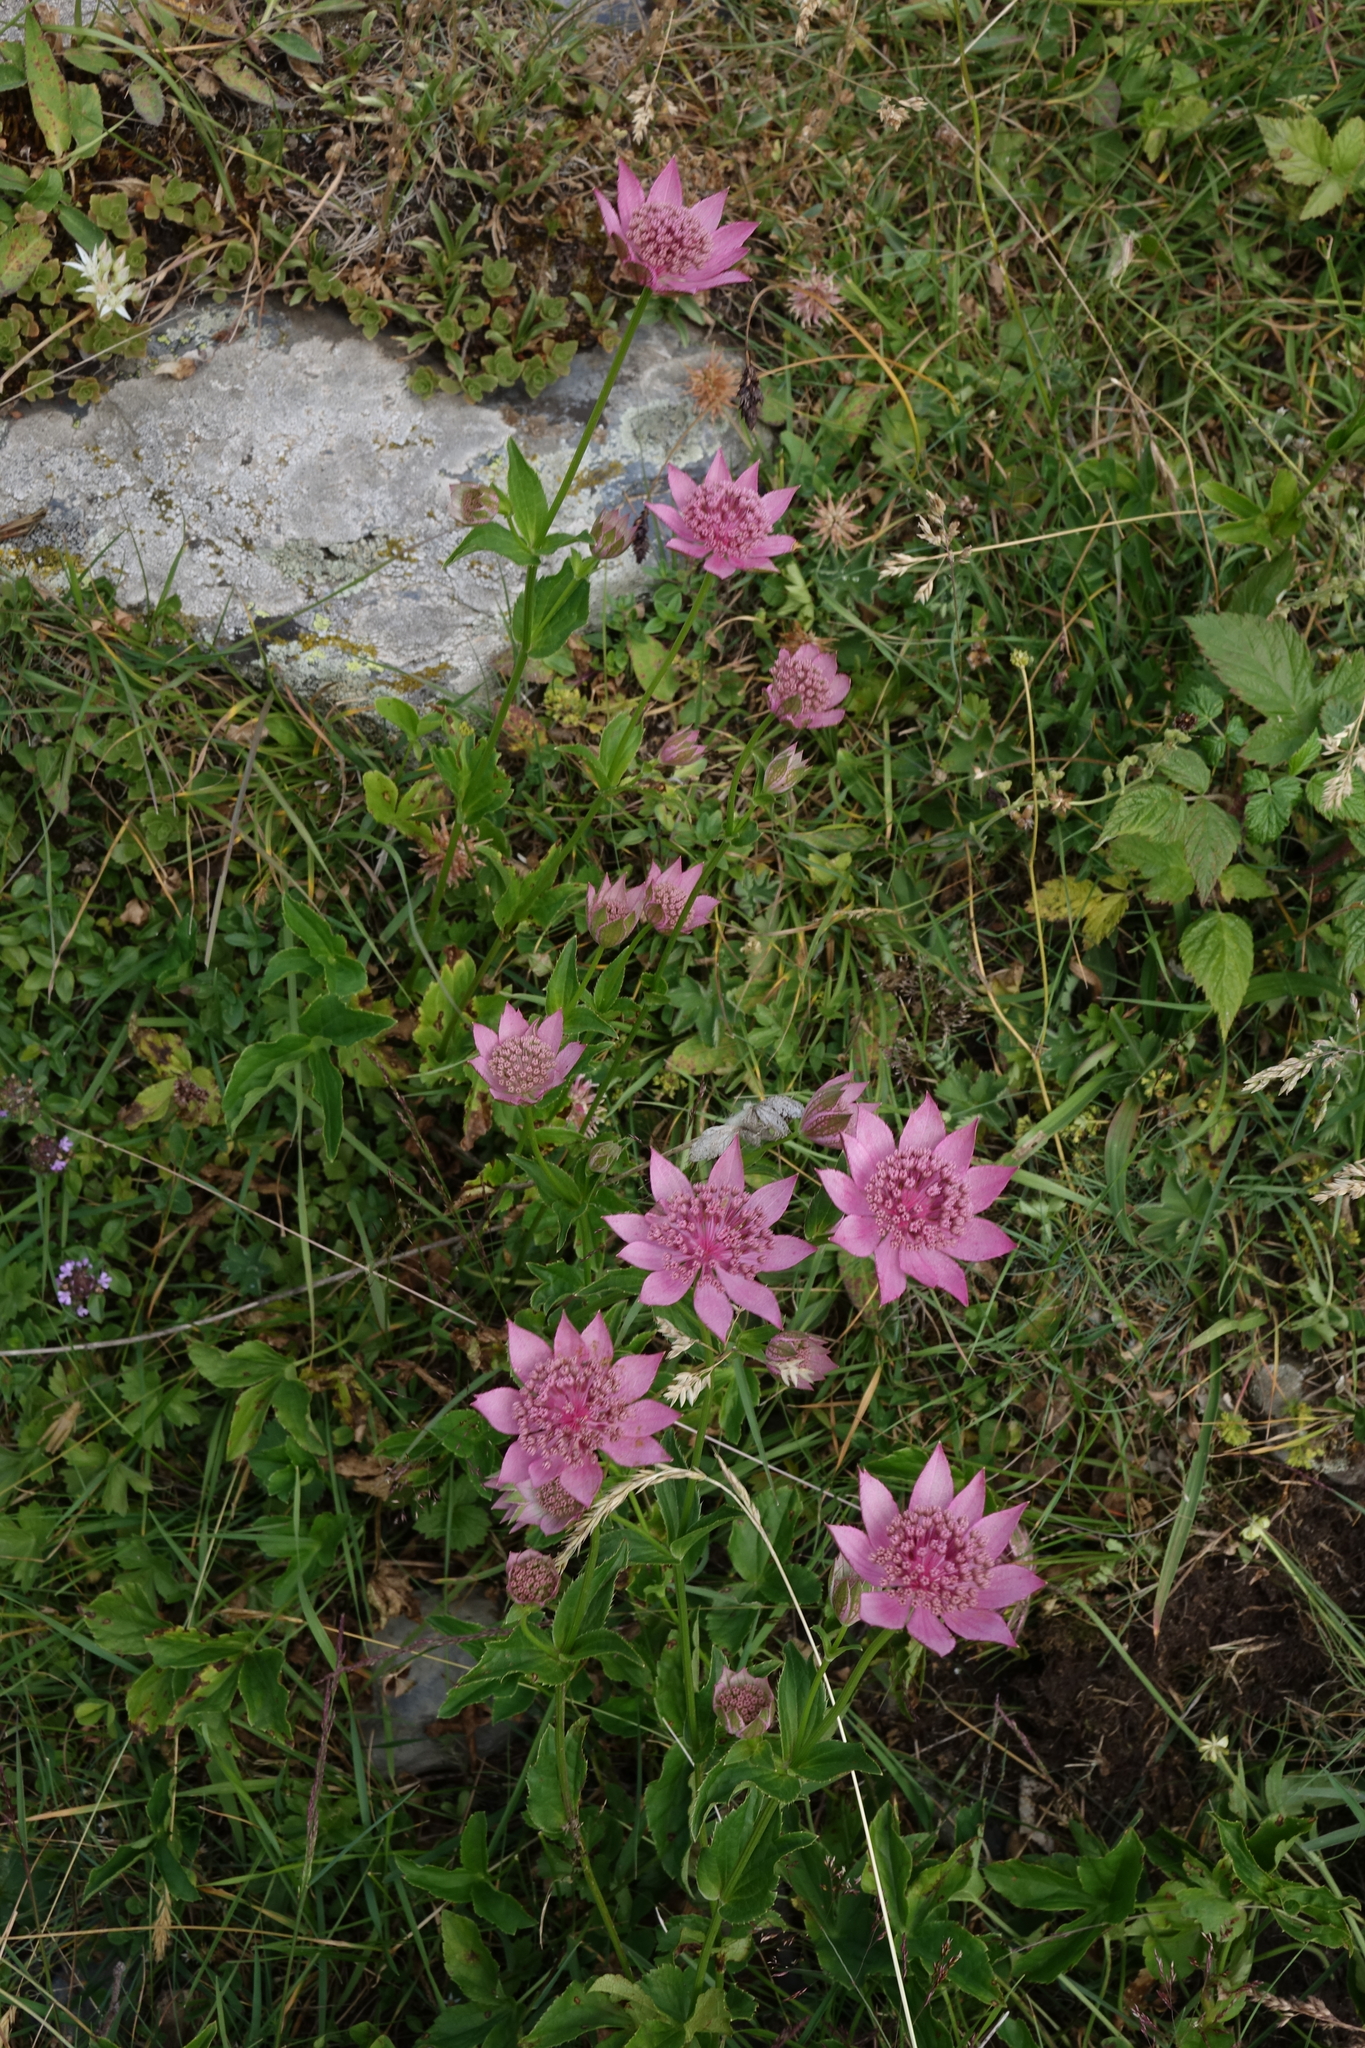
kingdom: Plantae
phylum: Tracheophyta
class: Magnoliopsida
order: Apiales
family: Apiaceae
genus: Astrantia
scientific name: Astrantia maxima
